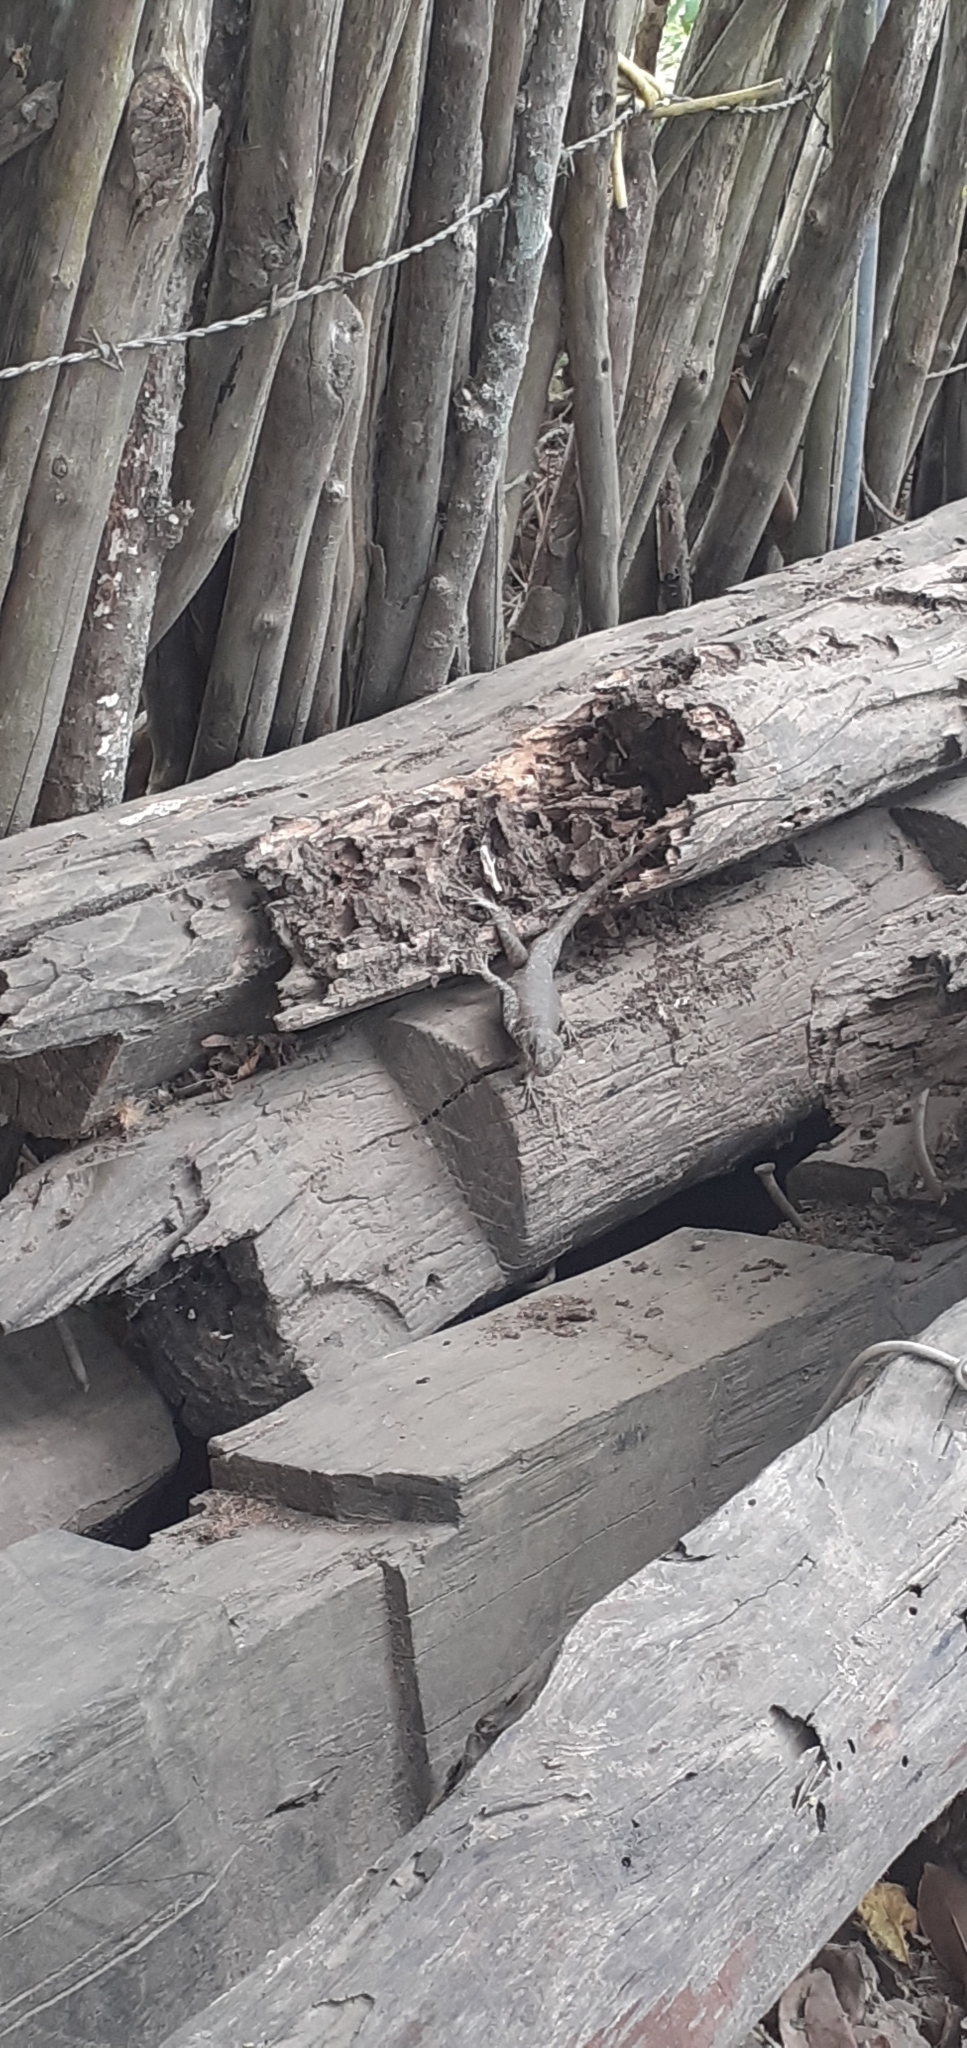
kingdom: Animalia
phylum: Chordata
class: Squamata
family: Tropiduridae
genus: Tropidurus
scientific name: Tropidurus hispidus
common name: Peters' lava lizard
